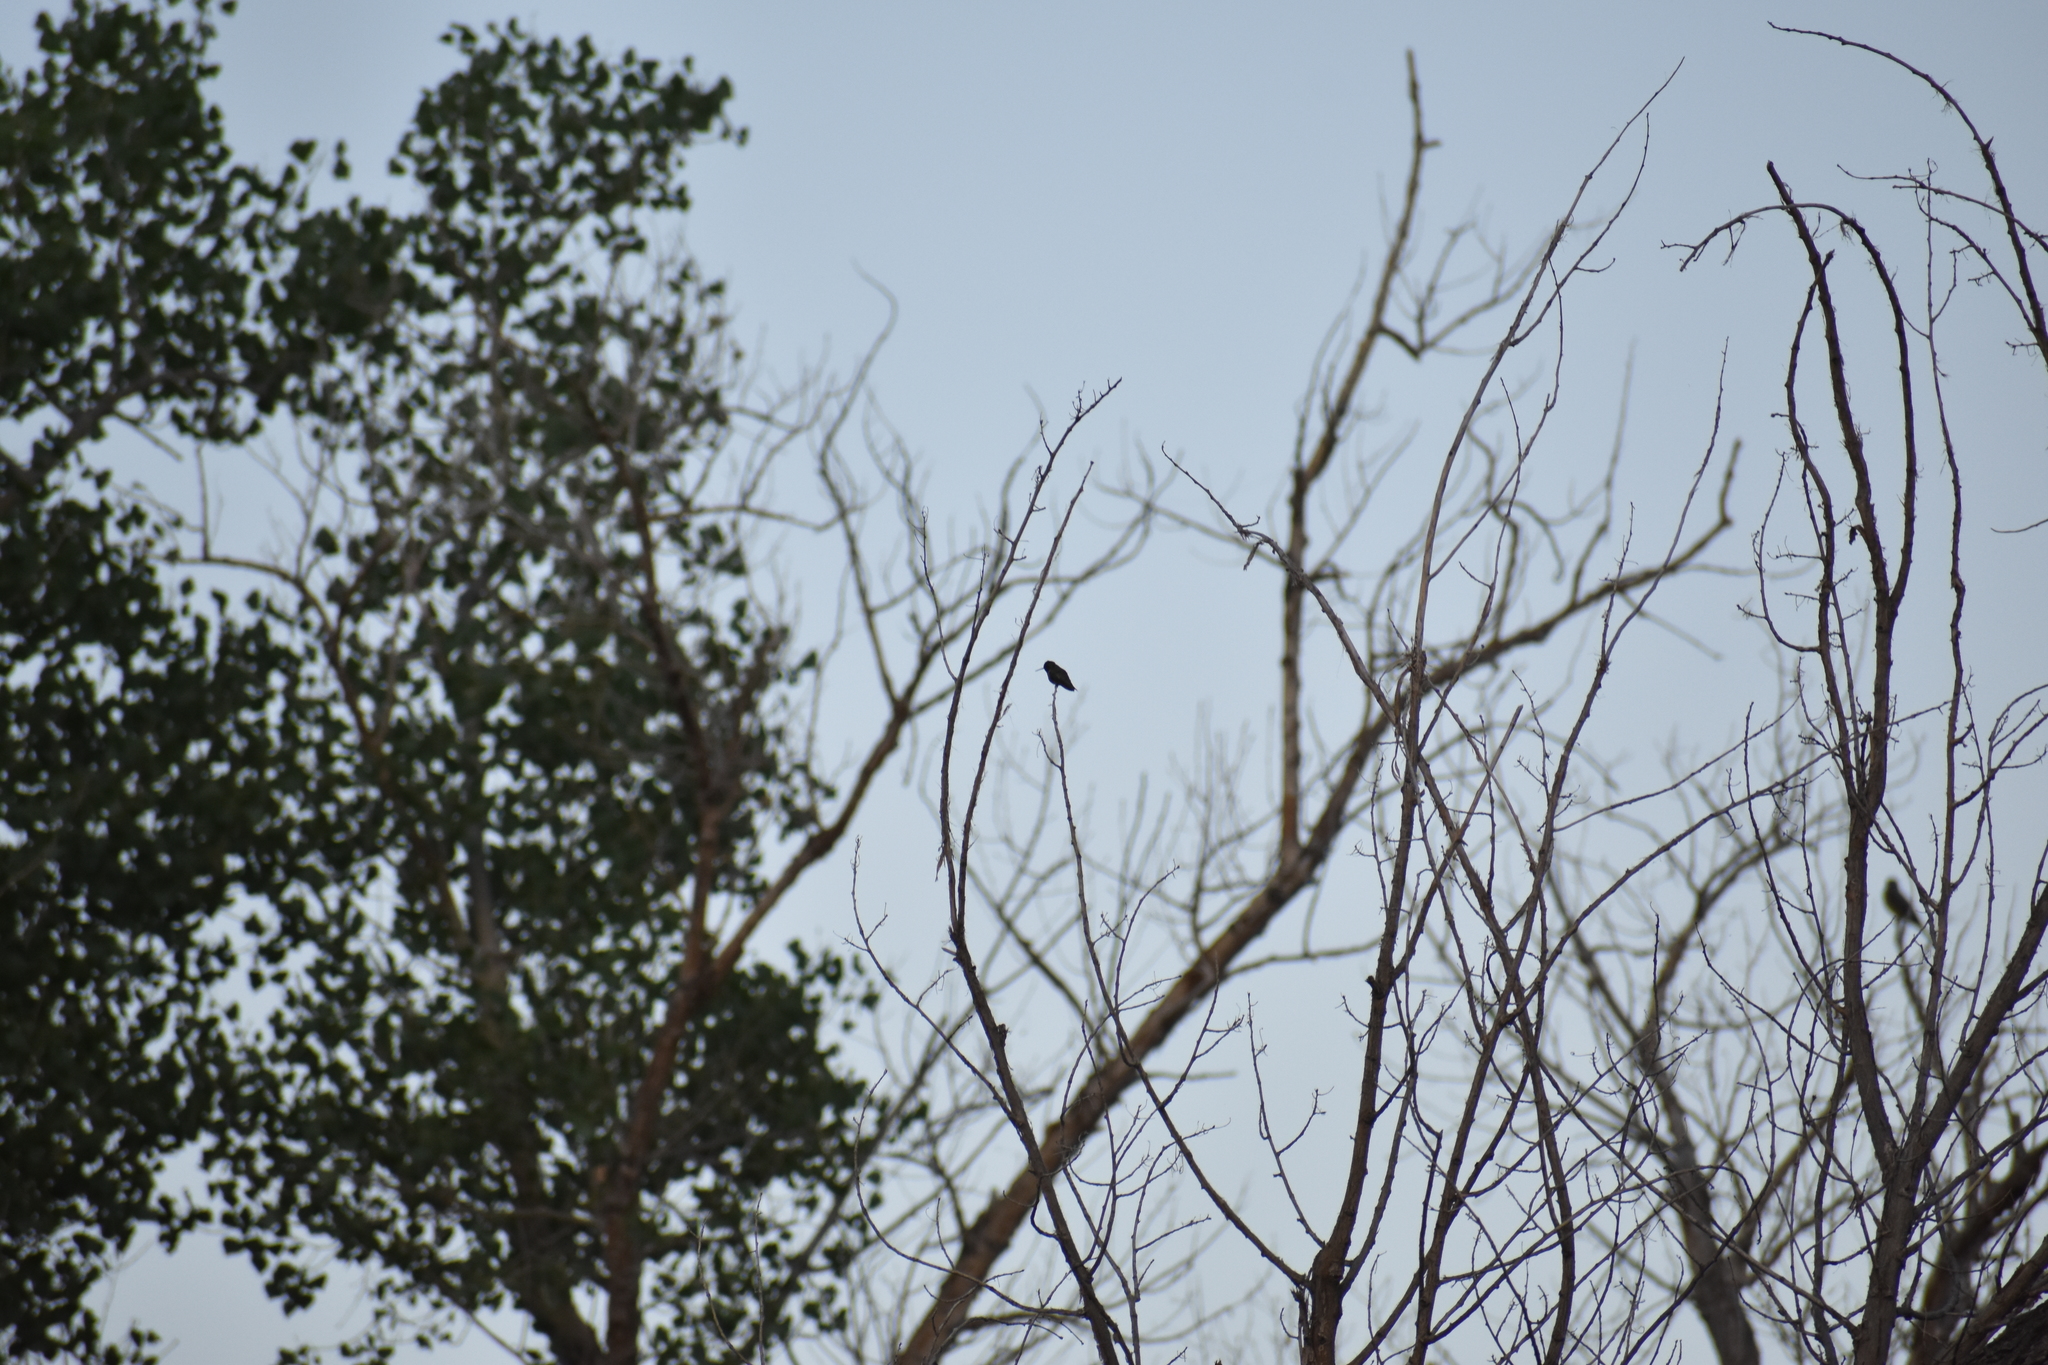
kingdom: Animalia
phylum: Chordata
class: Aves
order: Apodiformes
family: Trochilidae
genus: Archilochus
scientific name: Archilochus alexandri
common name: Black-chinned hummingbird
